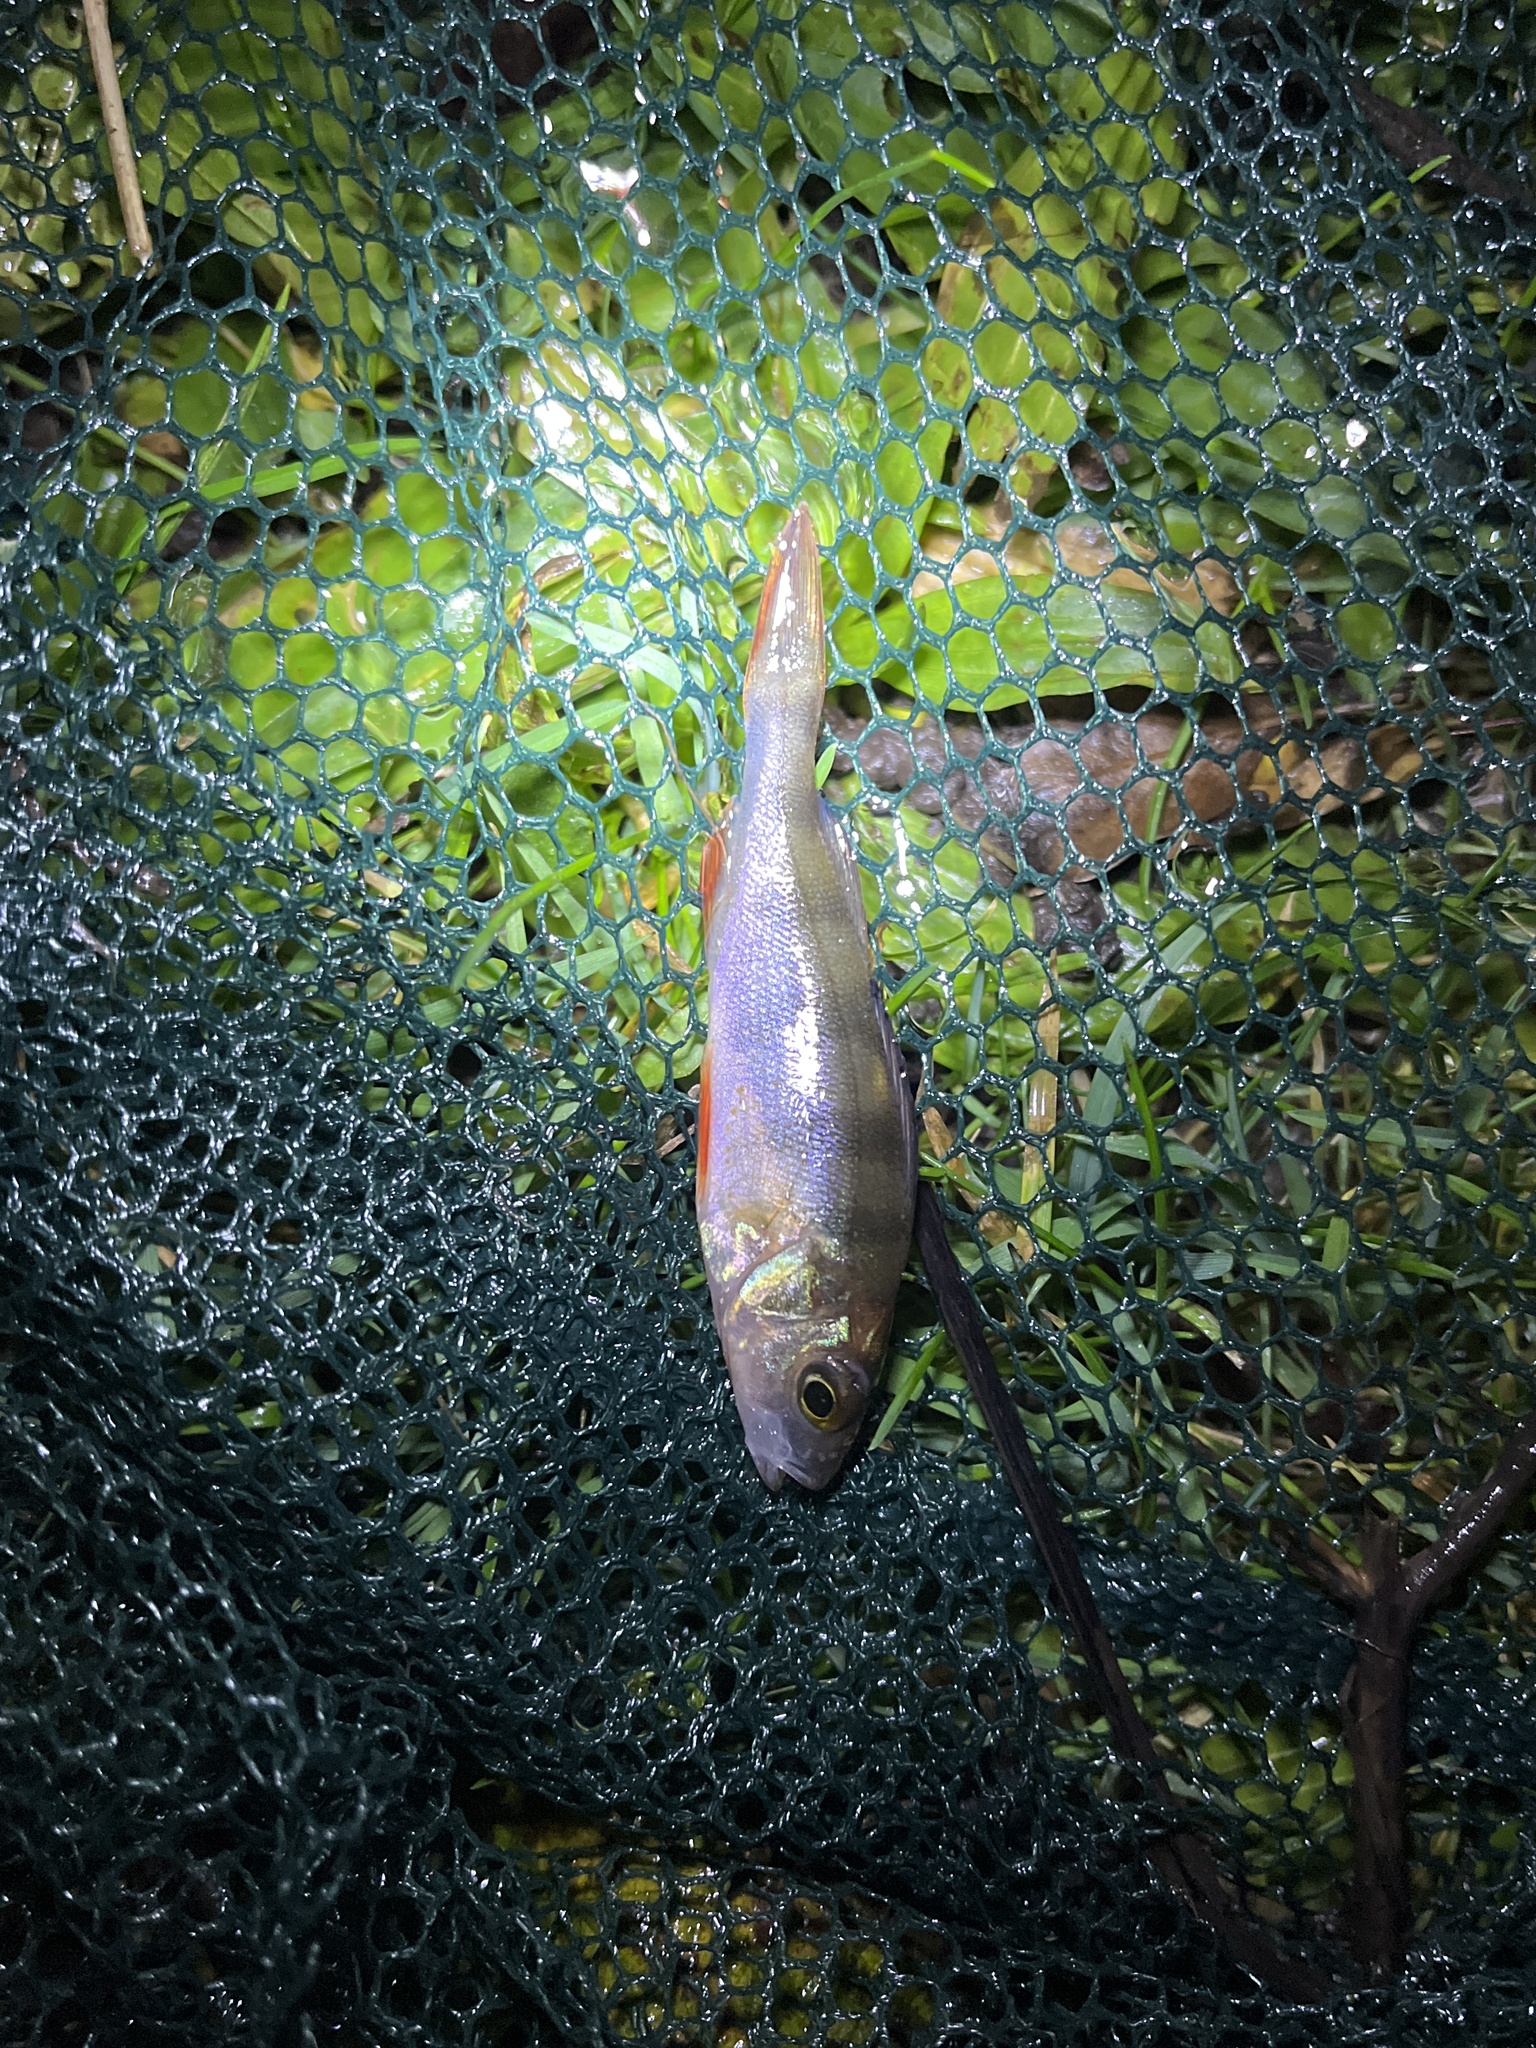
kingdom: Animalia
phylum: Chordata
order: Perciformes
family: Percidae
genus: Perca
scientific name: Perca fluviatilis
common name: Perch
